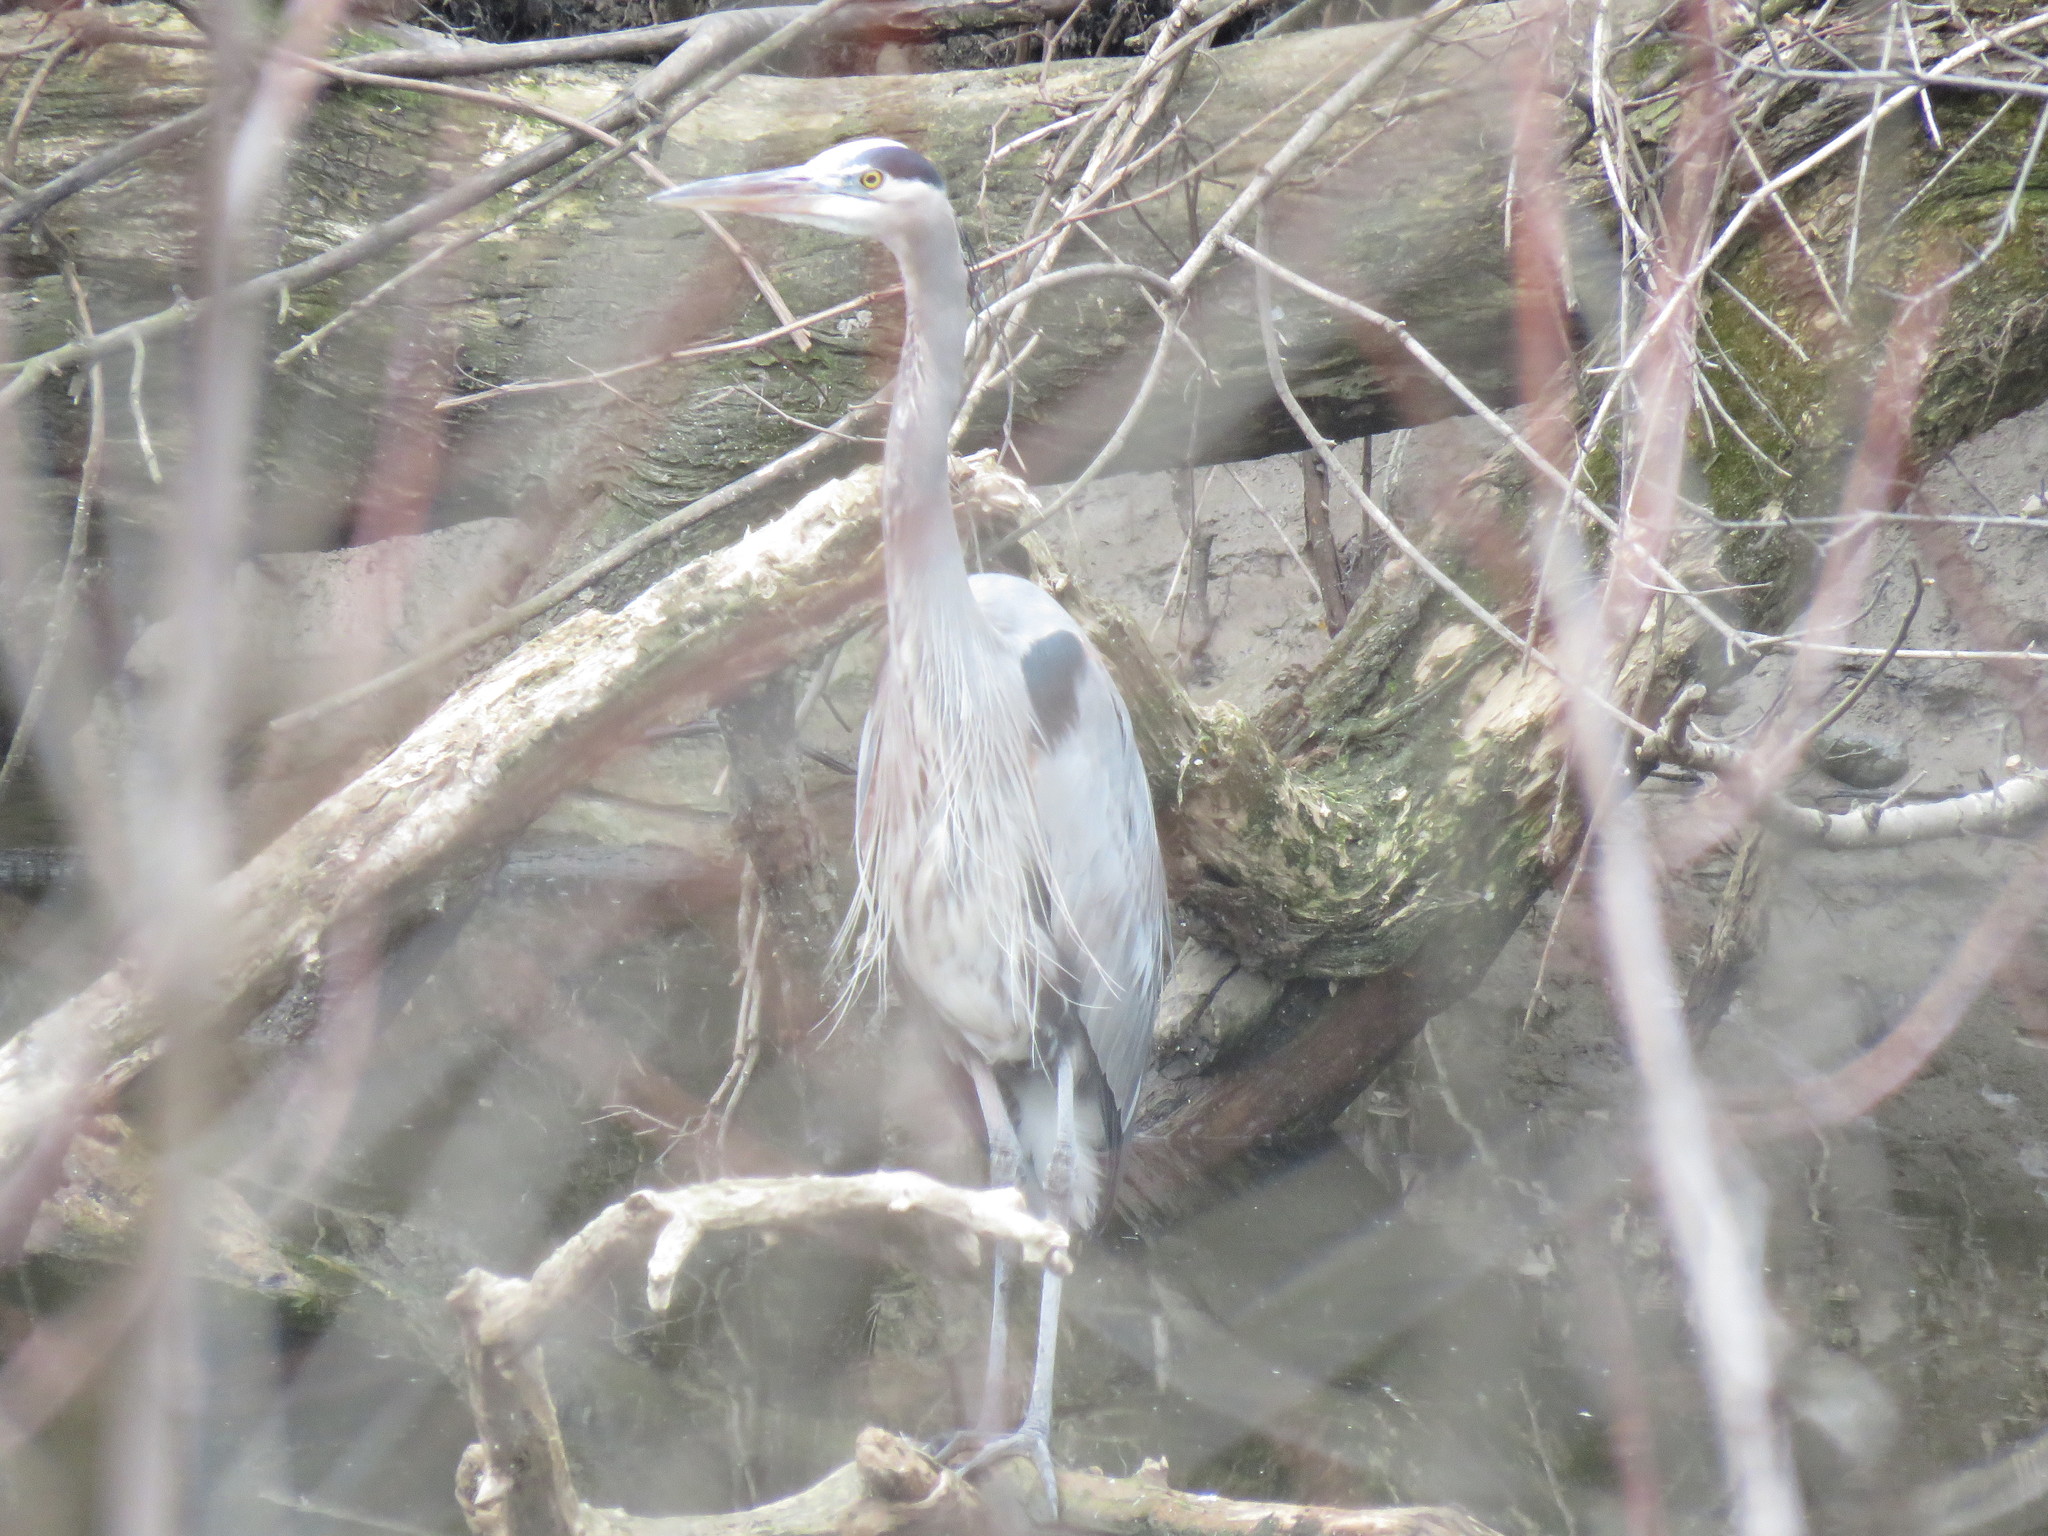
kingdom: Animalia
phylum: Chordata
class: Aves
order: Pelecaniformes
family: Ardeidae
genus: Ardea
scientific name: Ardea herodias
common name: Great blue heron
